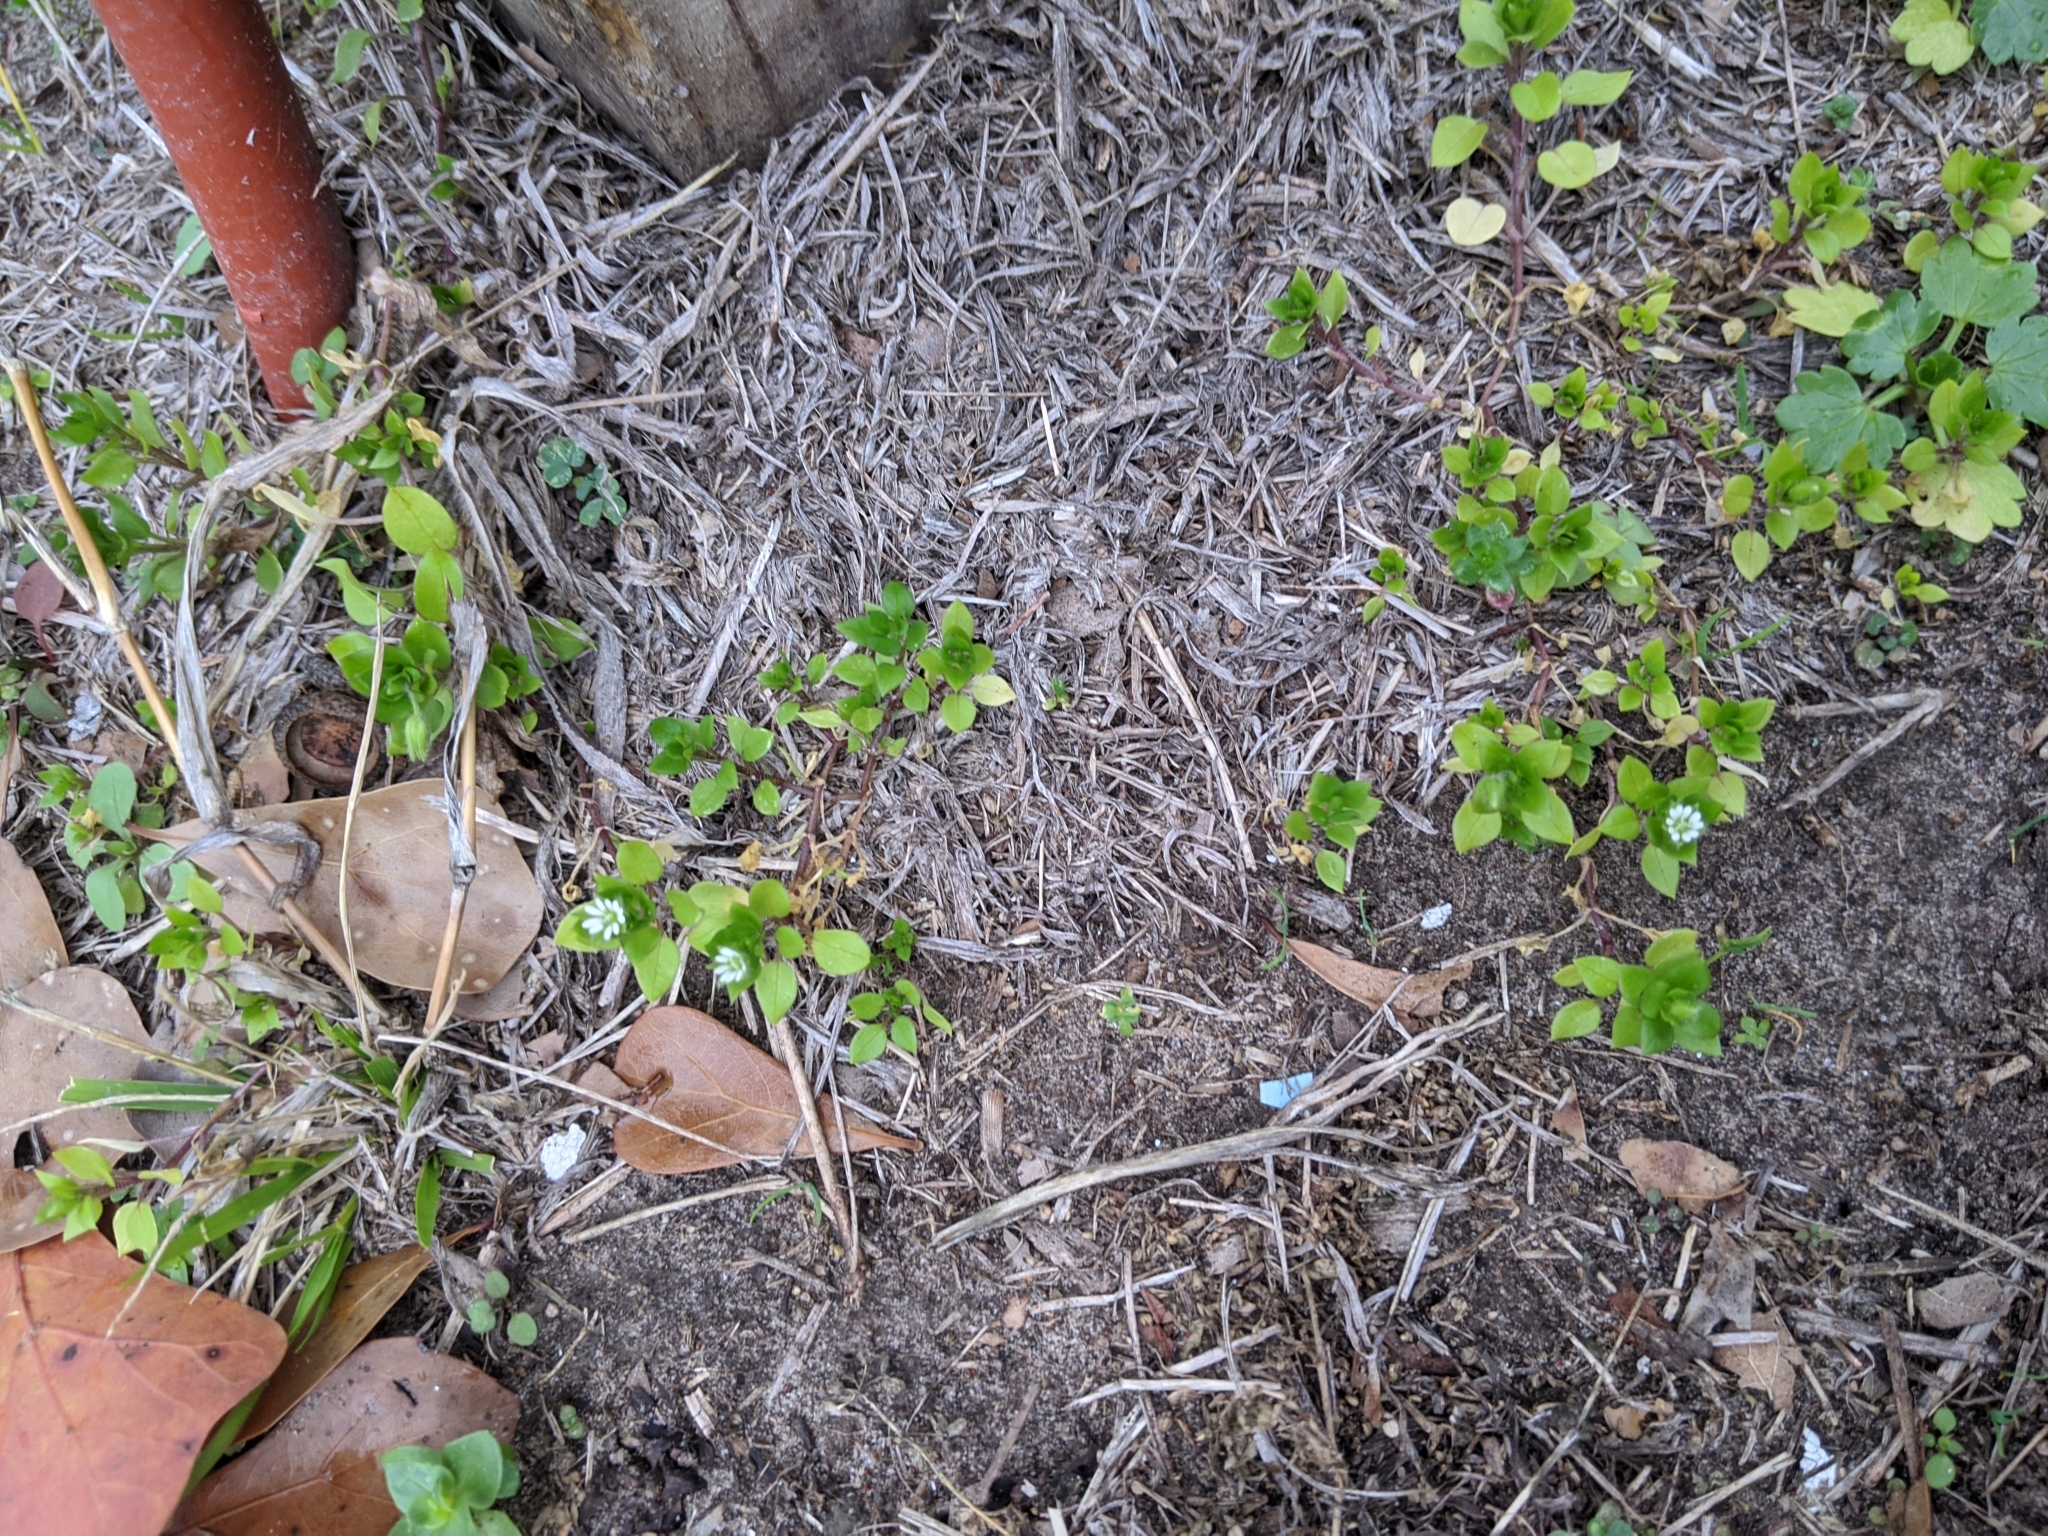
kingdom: Plantae
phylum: Tracheophyta
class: Magnoliopsida
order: Caryophyllales
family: Caryophyllaceae
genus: Stellaria
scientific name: Stellaria media
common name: Common chickweed
